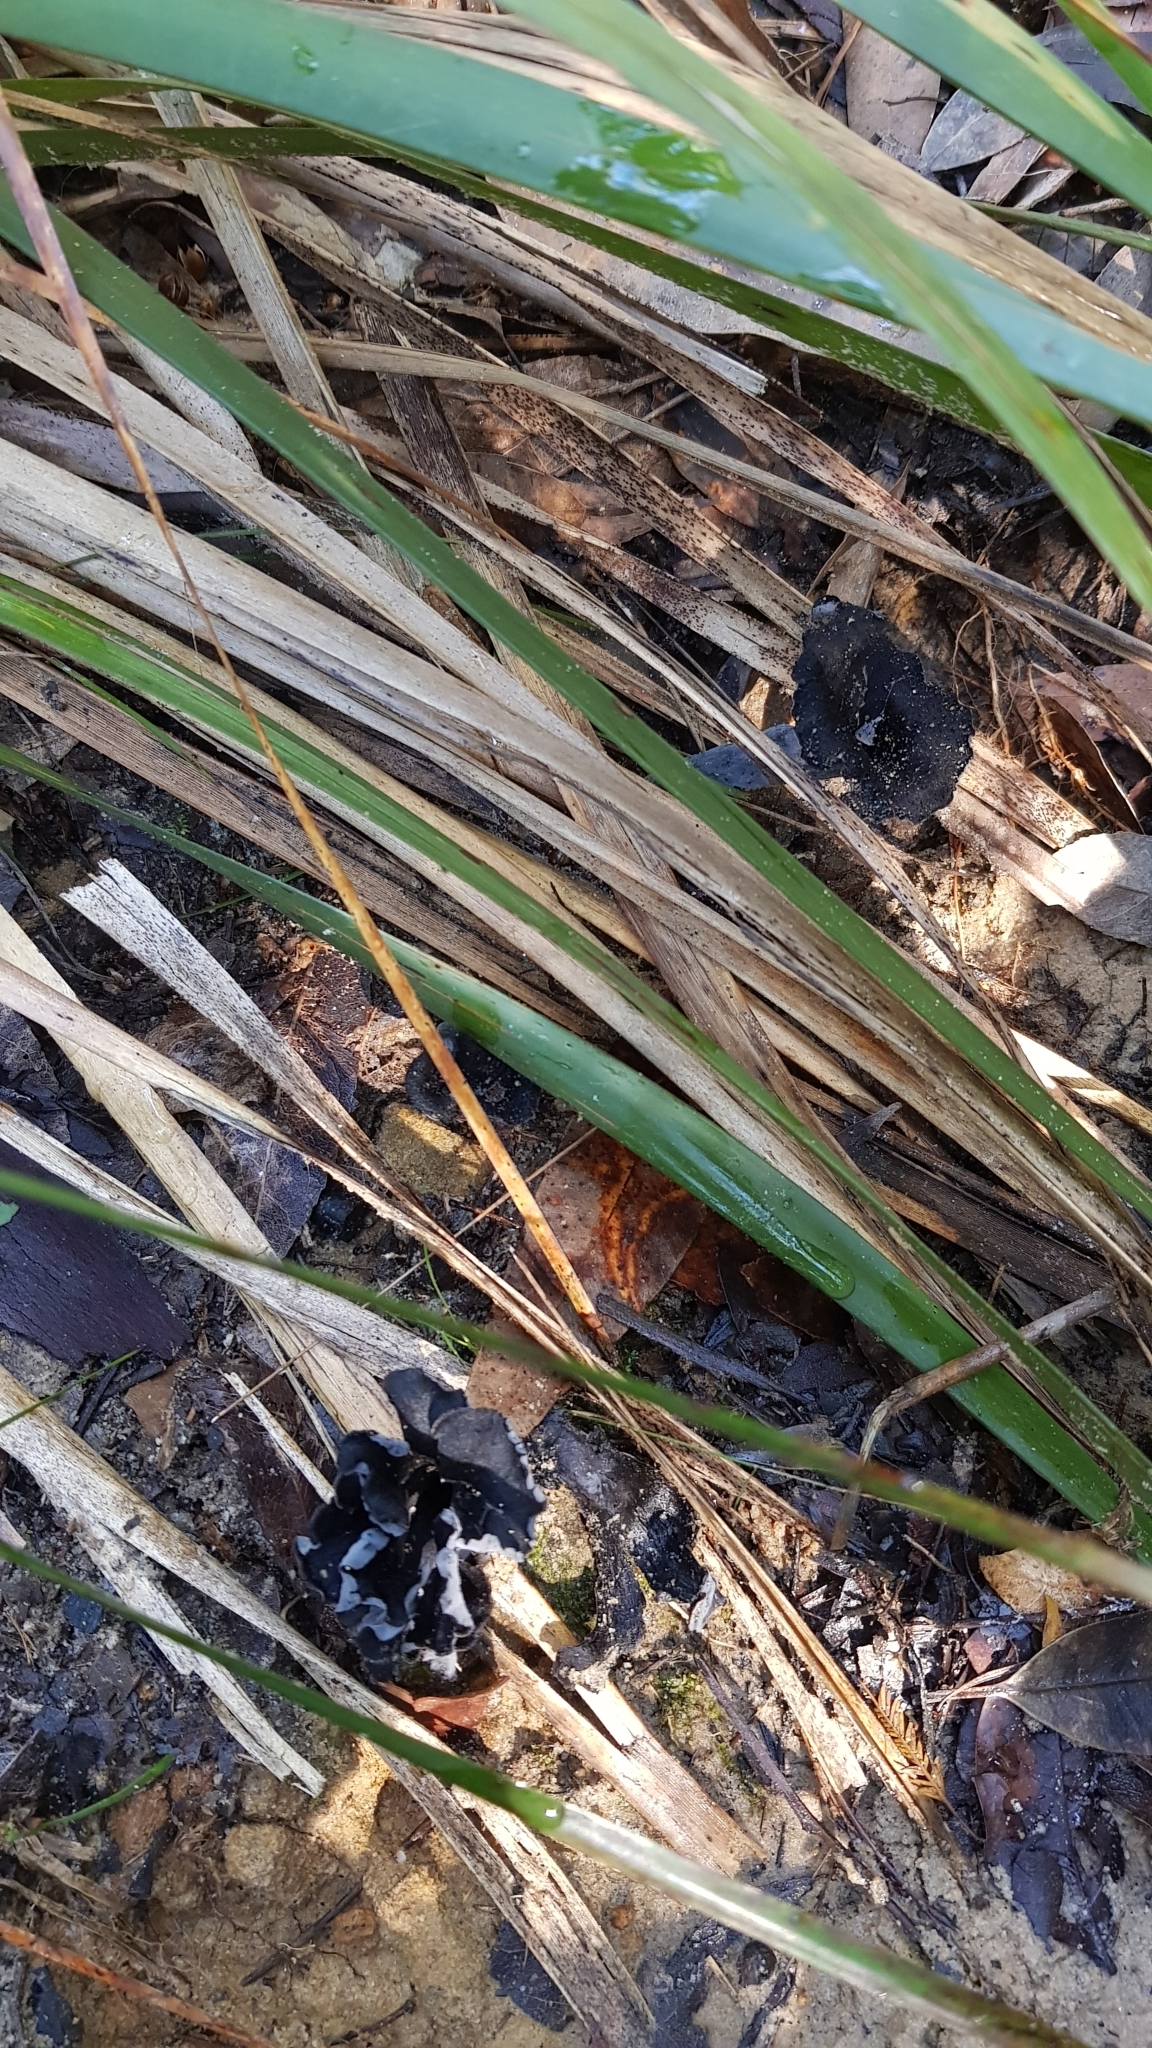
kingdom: Fungi
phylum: Basidiomycota
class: Agaricomycetes
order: Cantharellales
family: Hydnaceae
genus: Craterellus
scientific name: Craterellus cornucopioides
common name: Horn of plenty
